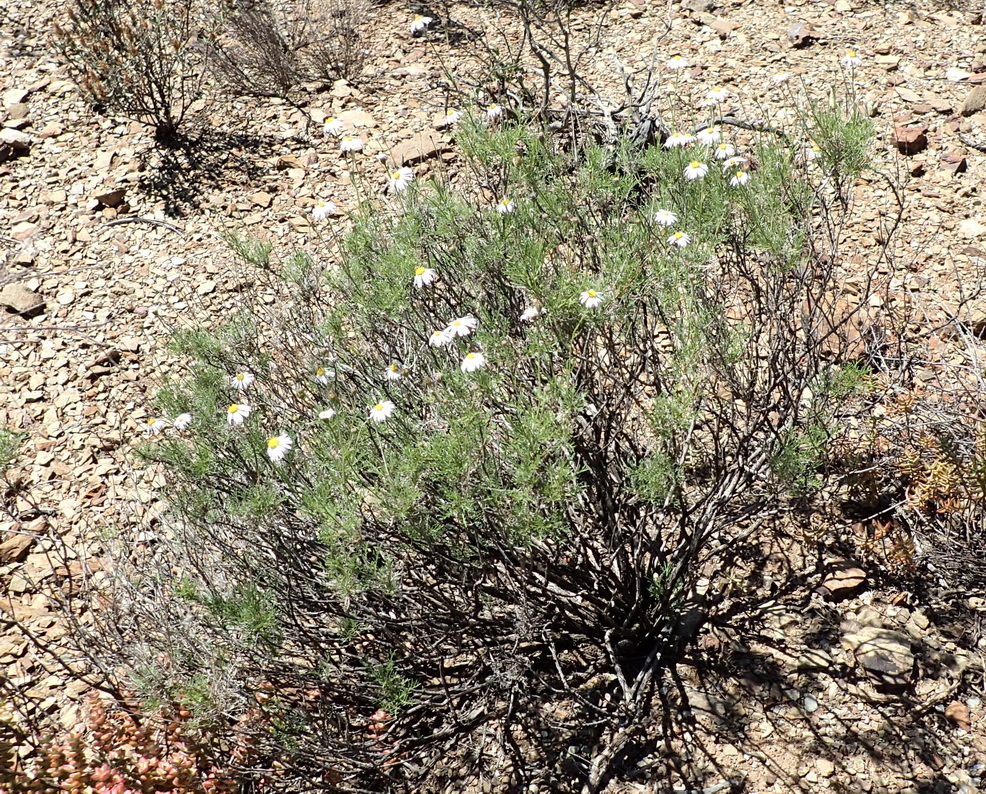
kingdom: Plantae
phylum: Tracheophyta
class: Magnoliopsida
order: Asterales
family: Asteraceae
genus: Garuleum
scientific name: Garuleum bipinnatum
